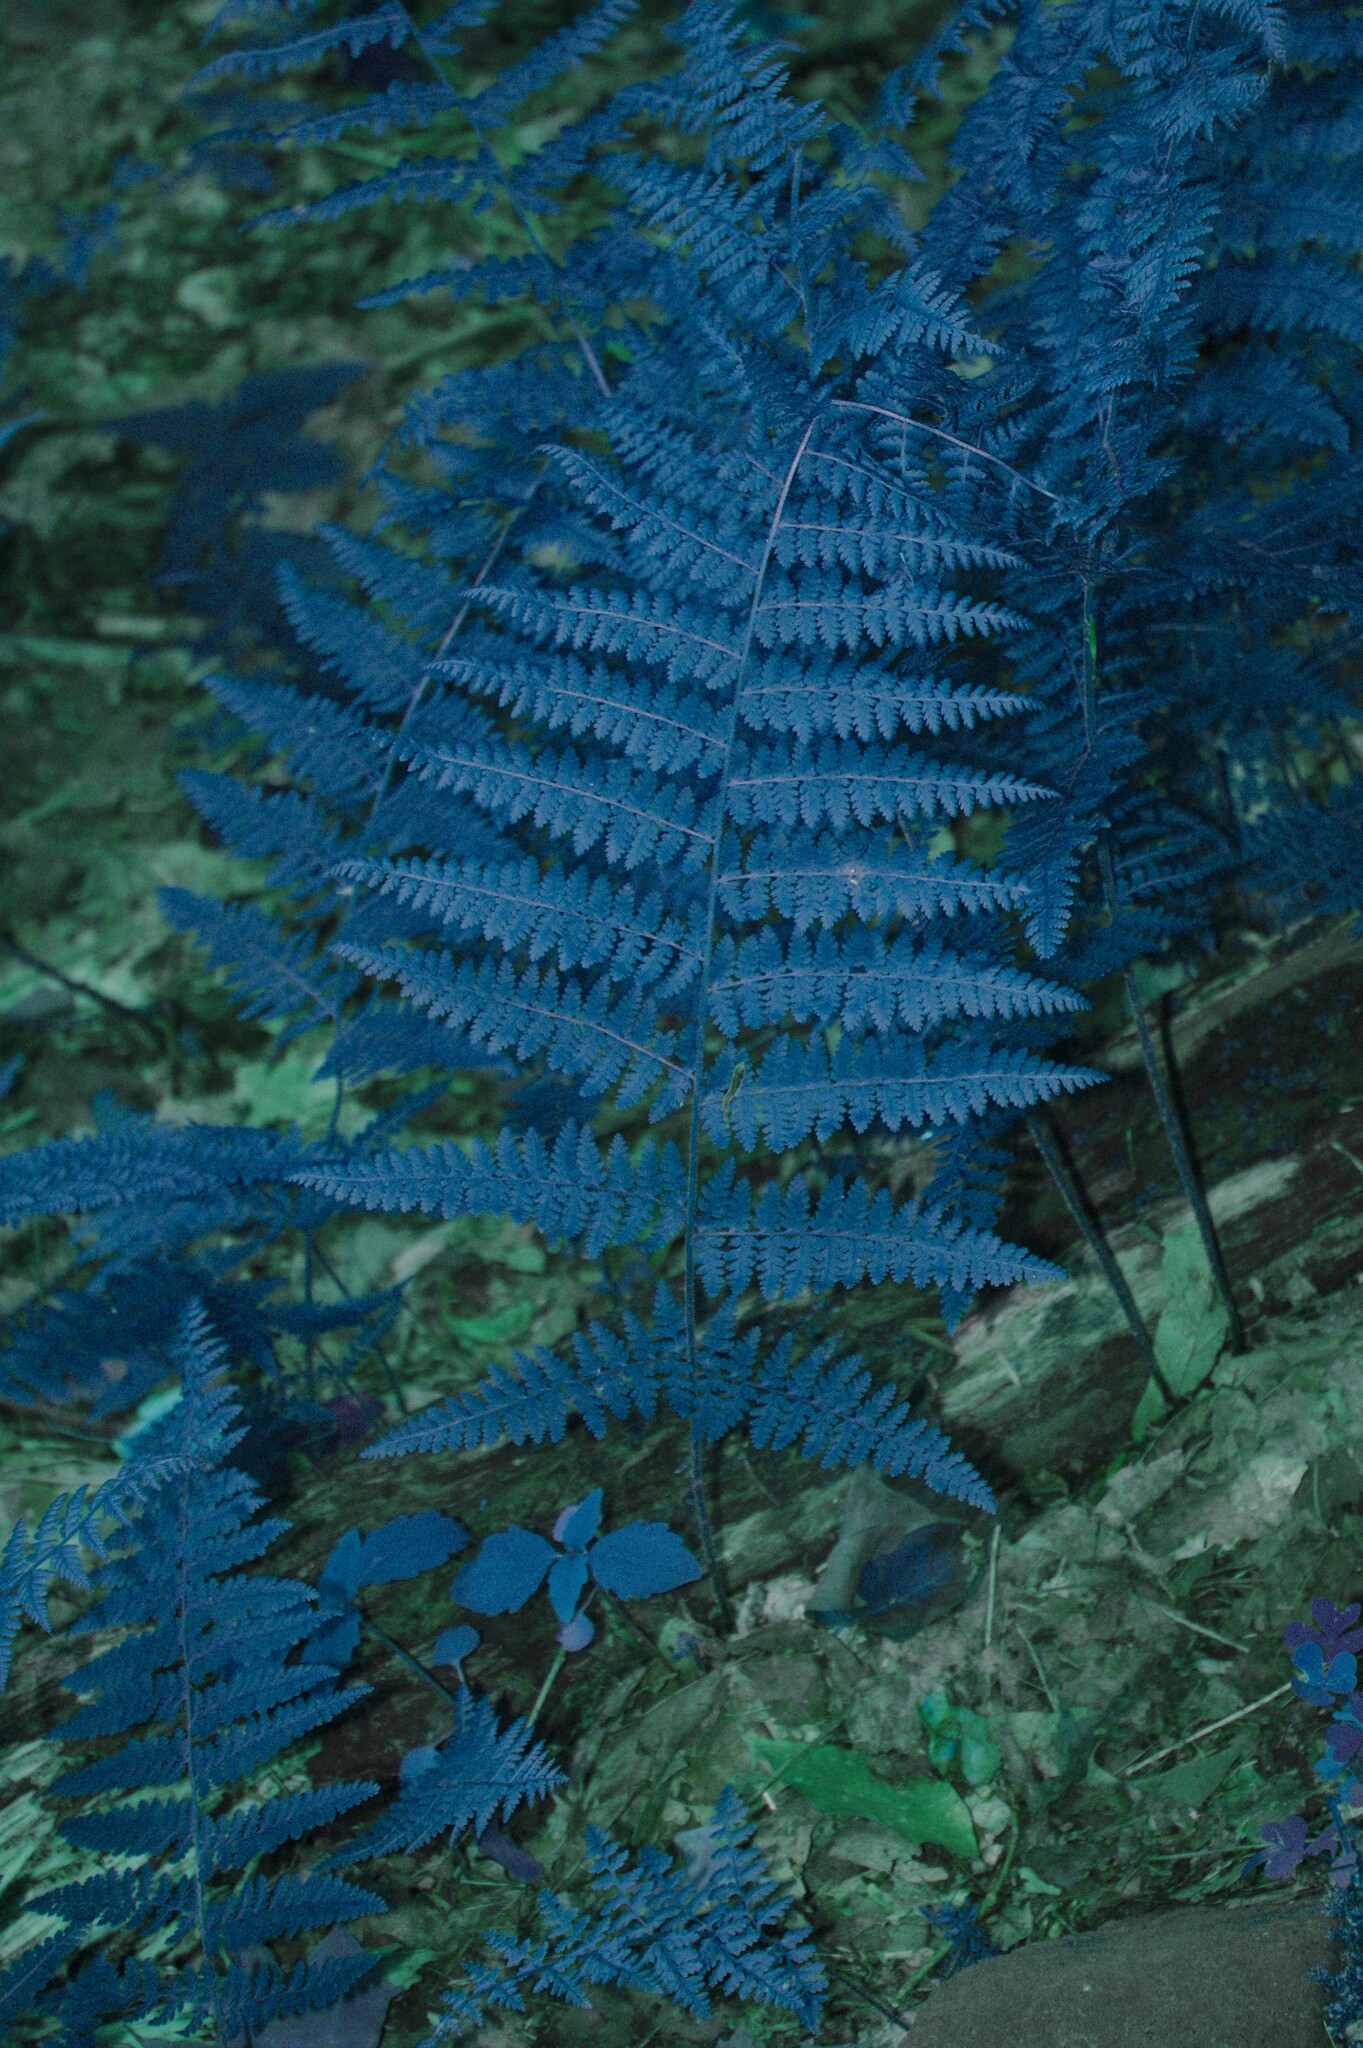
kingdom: Plantae
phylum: Tracheophyta
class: Polypodiopsida
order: Polypodiales
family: Dennstaedtiaceae
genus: Sitobolium
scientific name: Sitobolium punctilobum
